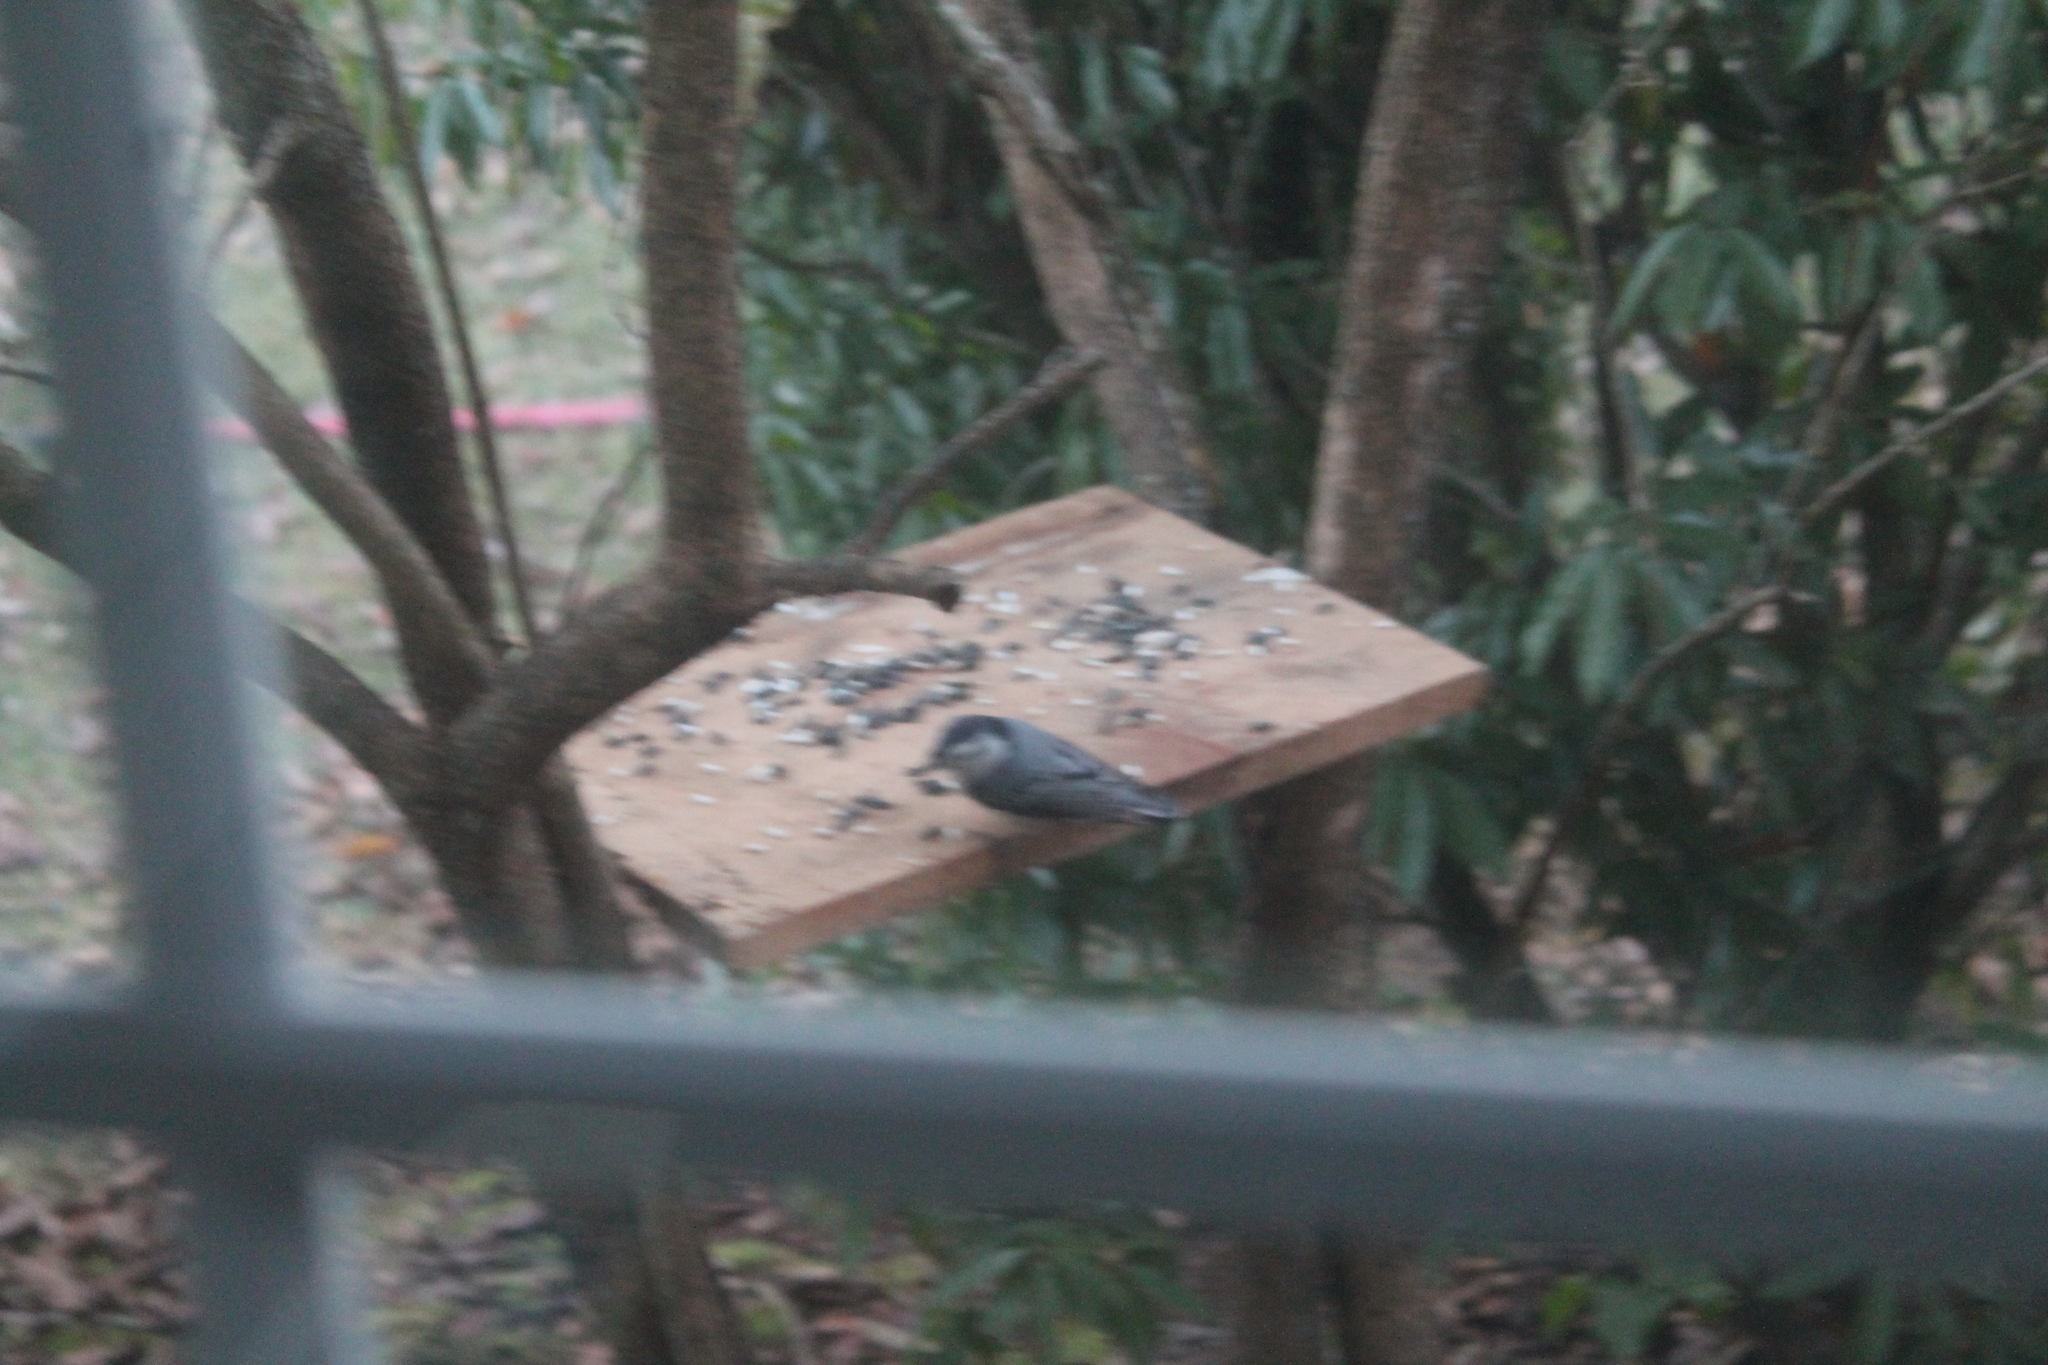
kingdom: Animalia
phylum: Chordata
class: Aves
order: Passeriformes
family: Sittidae
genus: Sitta
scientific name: Sitta carolinensis
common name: White-breasted nuthatch
